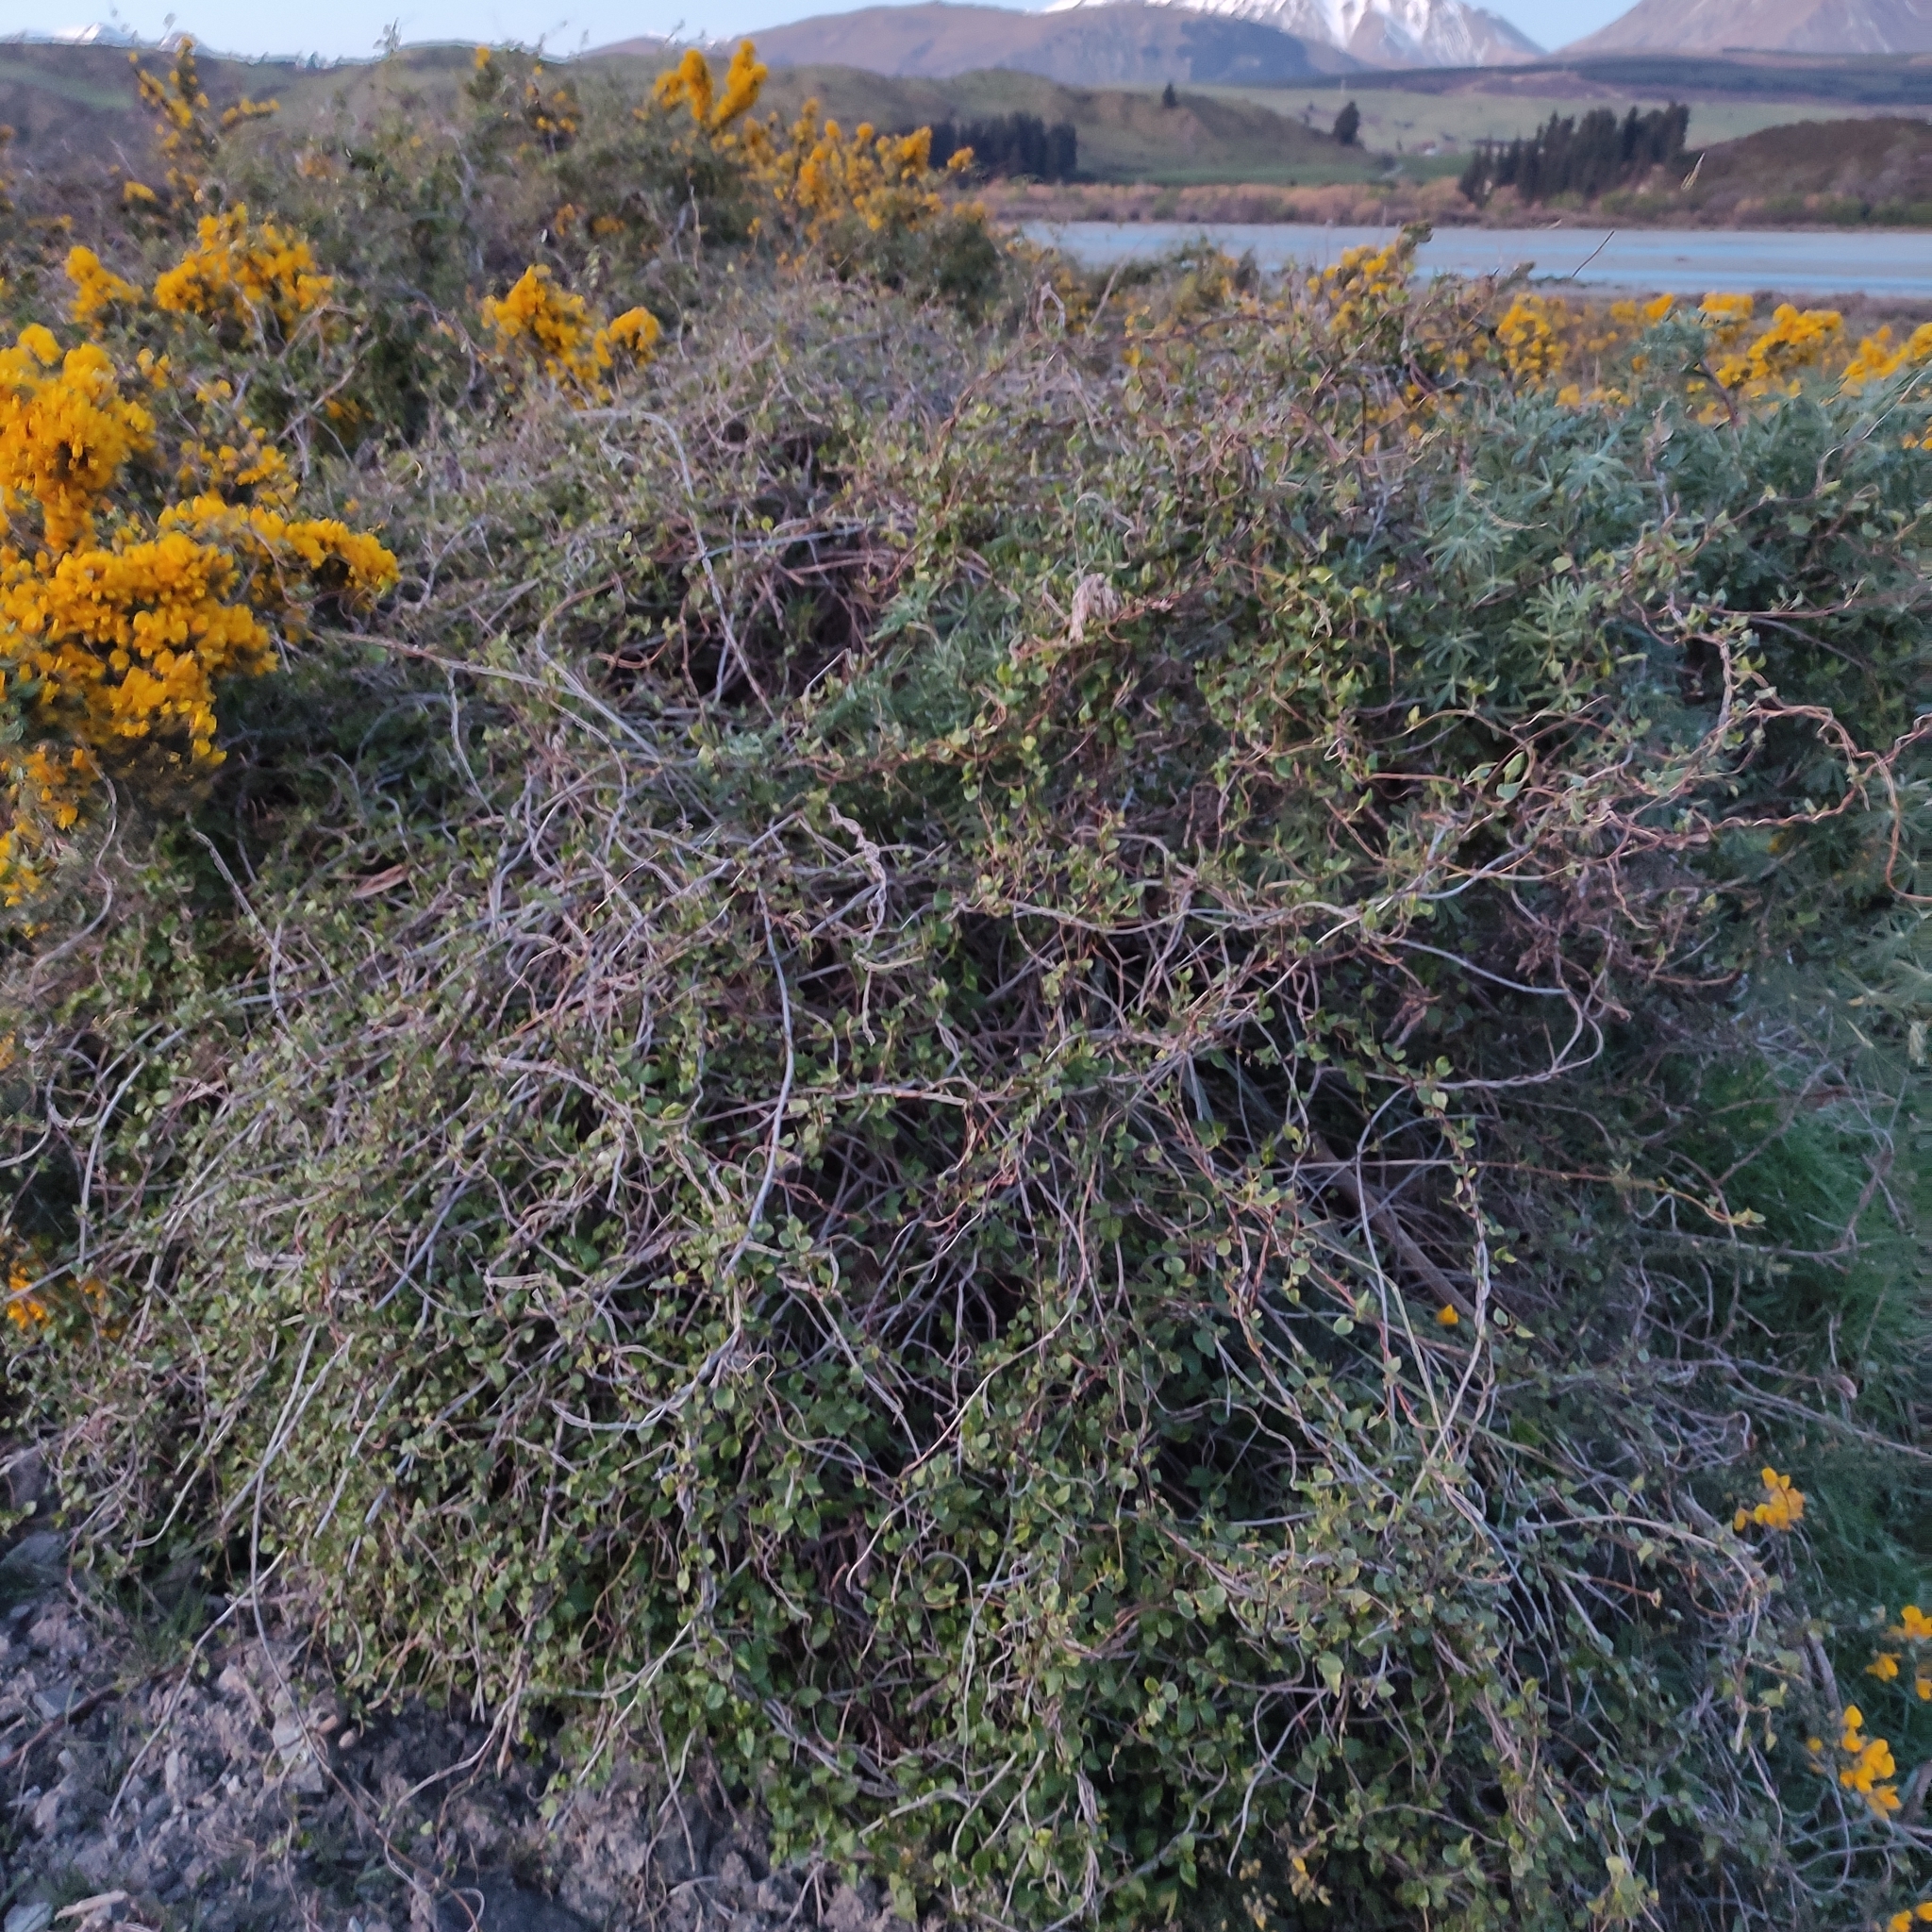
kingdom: Plantae
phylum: Tracheophyta
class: Magnoliopsida
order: Caryophyllales
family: Polygonaceae
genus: Muehlenbeckia
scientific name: Muehlenbeckia australis
